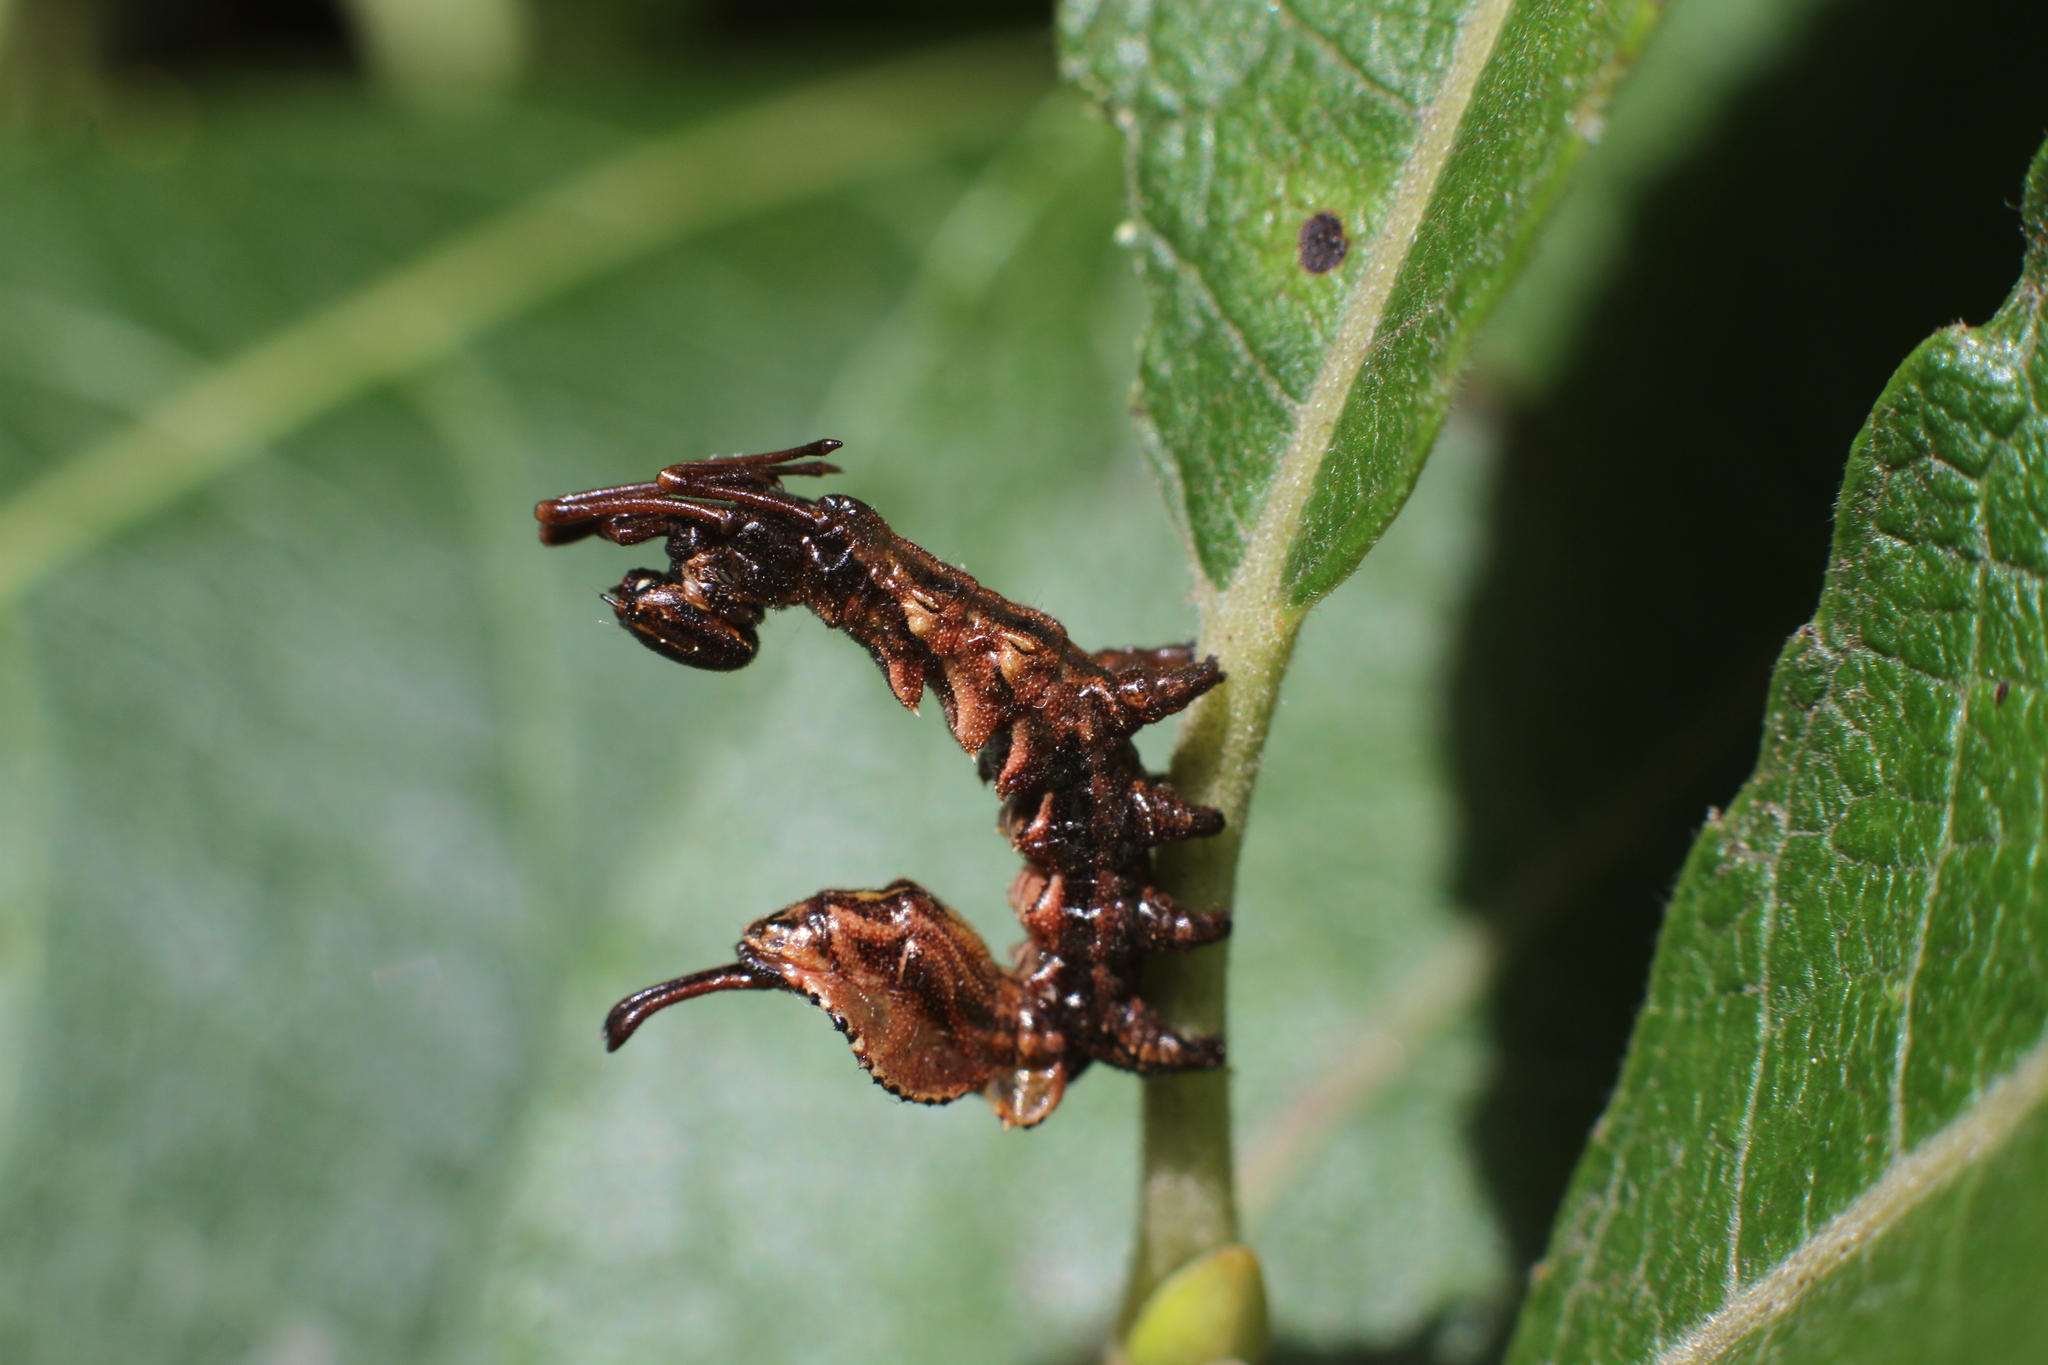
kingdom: Animalia
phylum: Arthropoda
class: Insecta
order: Lepidoptera
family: Notodontidae
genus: Stauropus
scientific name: Stauropus fagi
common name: Lobster moth
